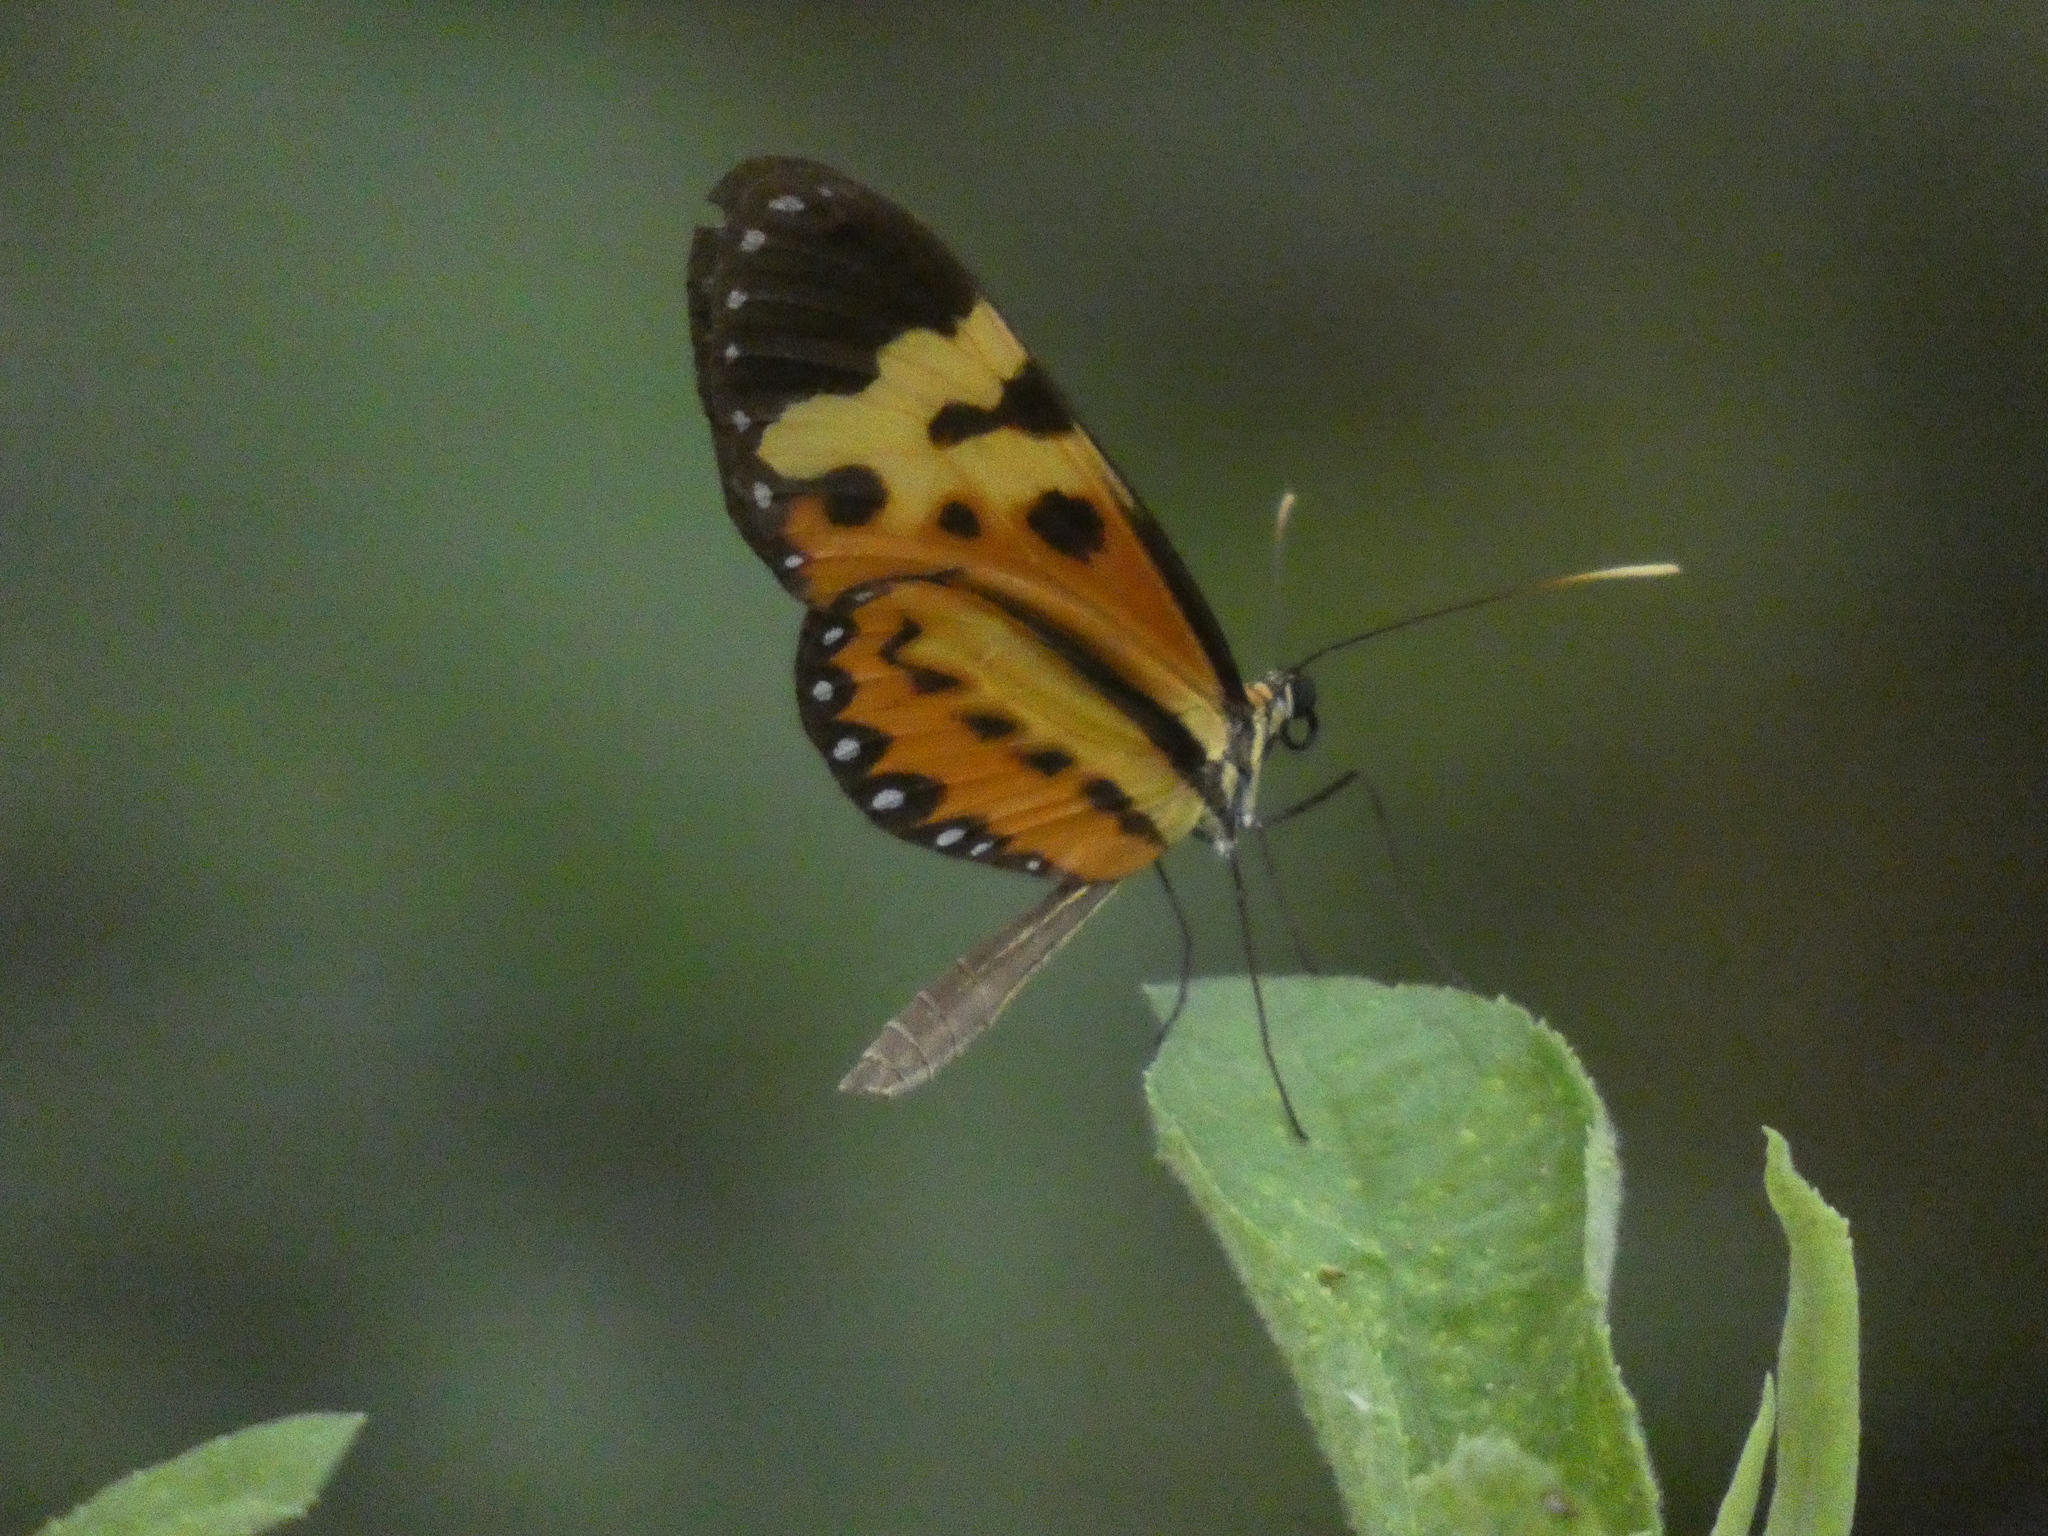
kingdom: Animalia
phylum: Arthropoda
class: Insecta
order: Lepidoptera
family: Nymphalidae
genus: Mechanitis
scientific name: Mechanitis polymnia
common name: Disturbed tigerwing
